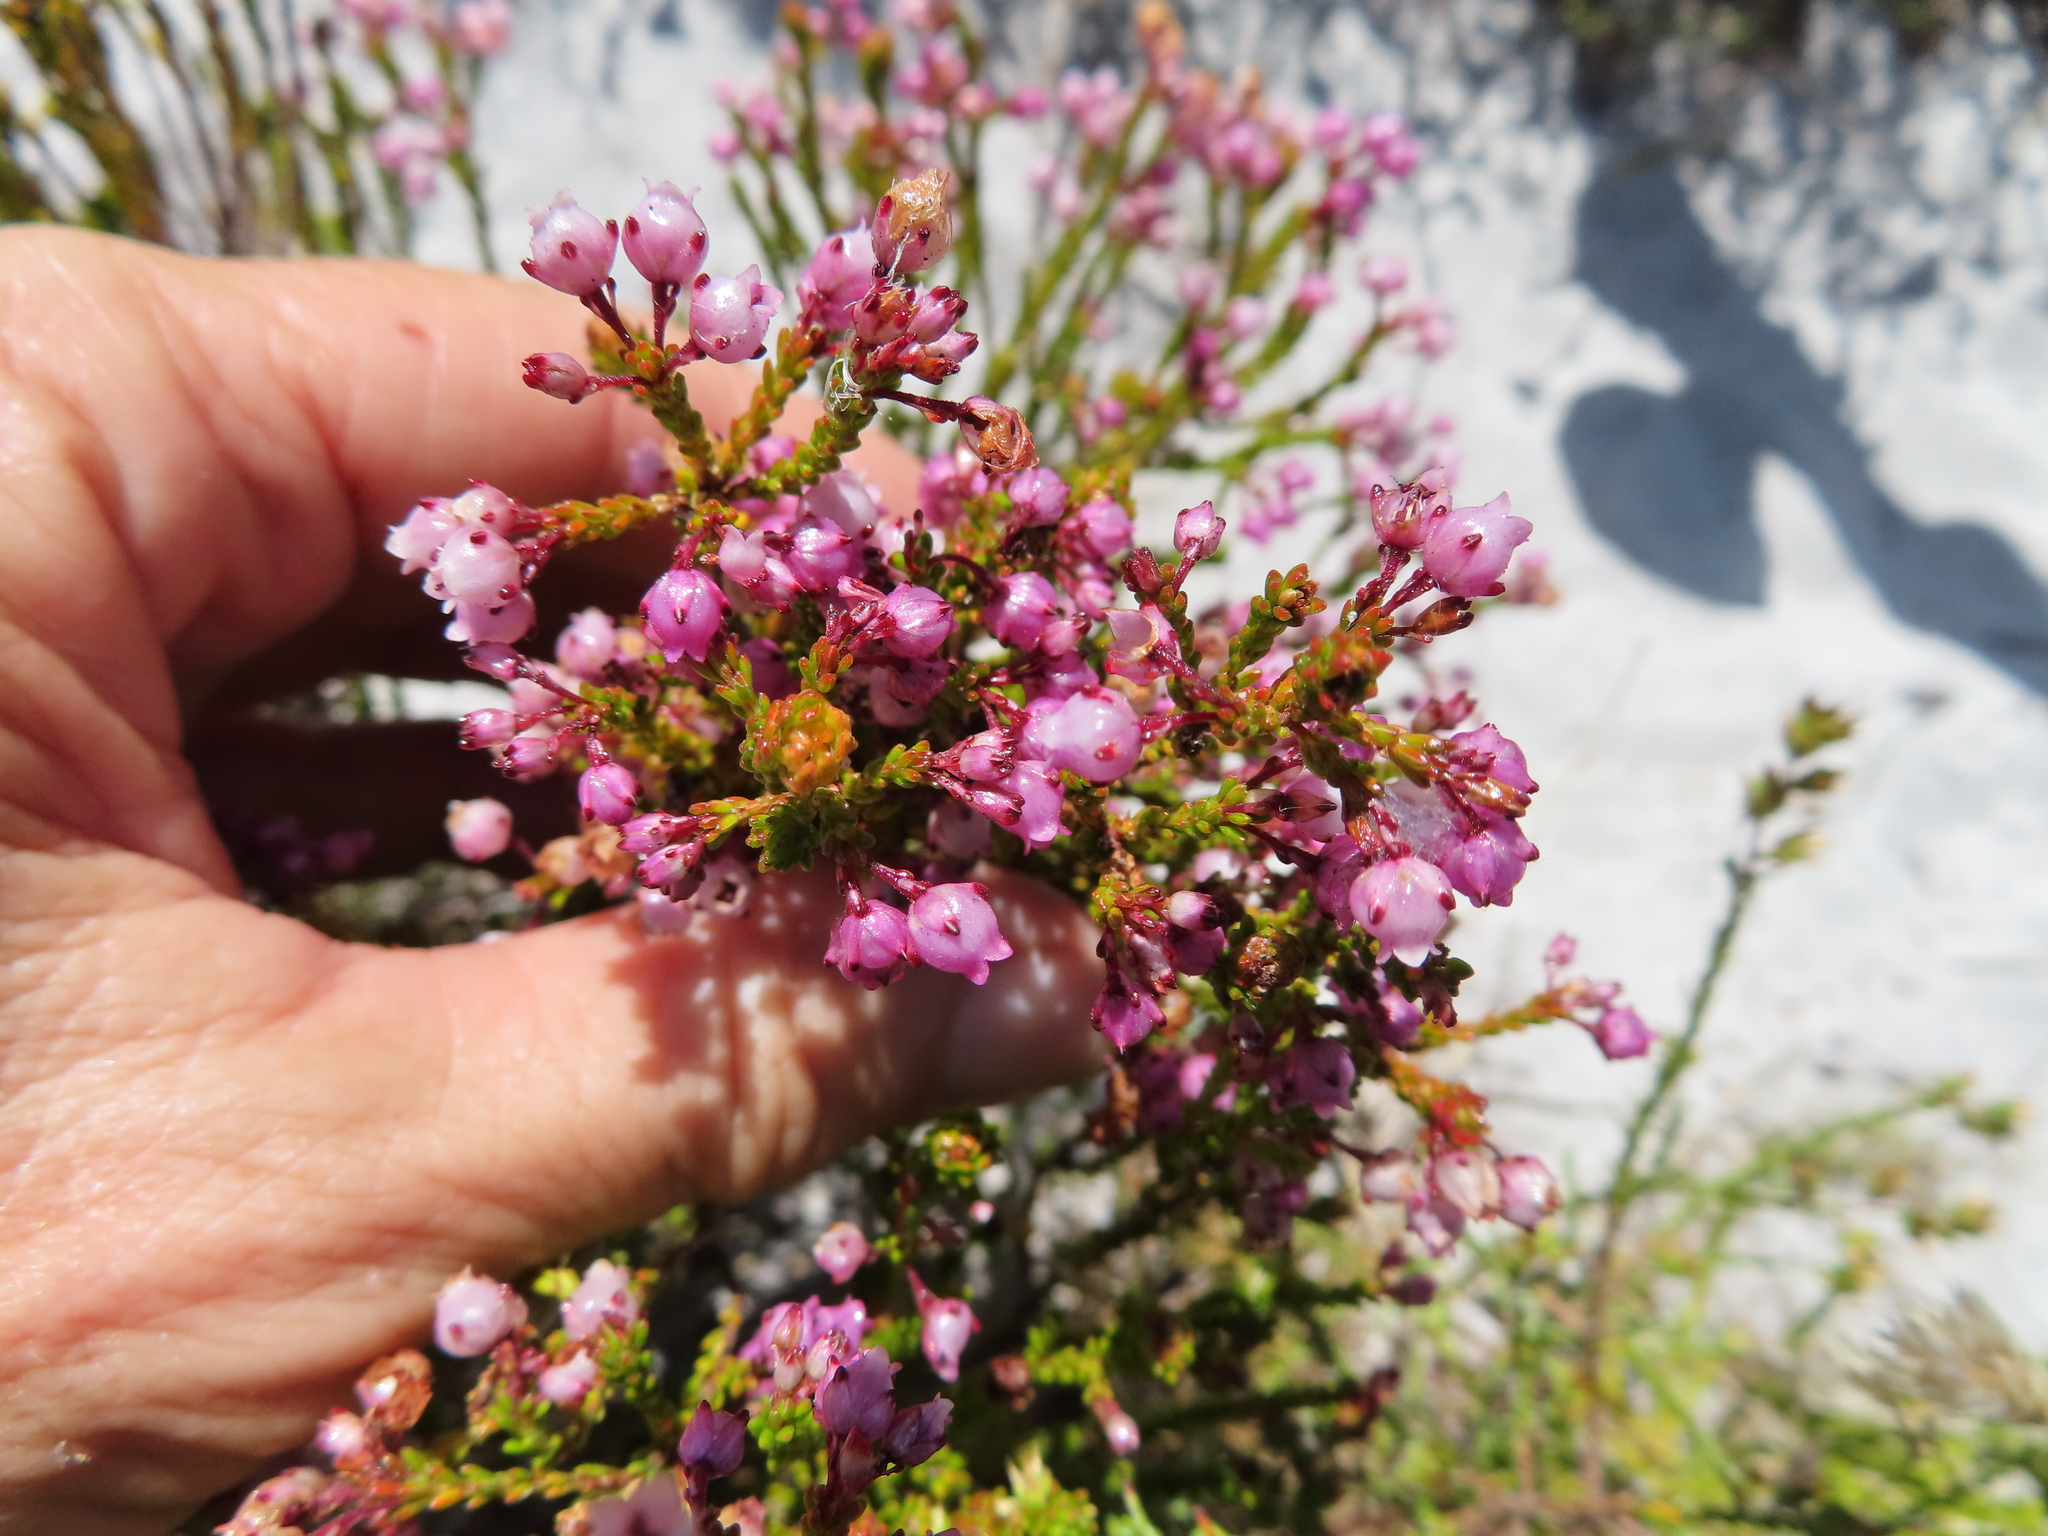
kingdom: Plantae
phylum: Tracheophyta
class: Magnoliopsida
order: Ericales
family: Ericaceae
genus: Erica
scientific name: Erica ferrea
